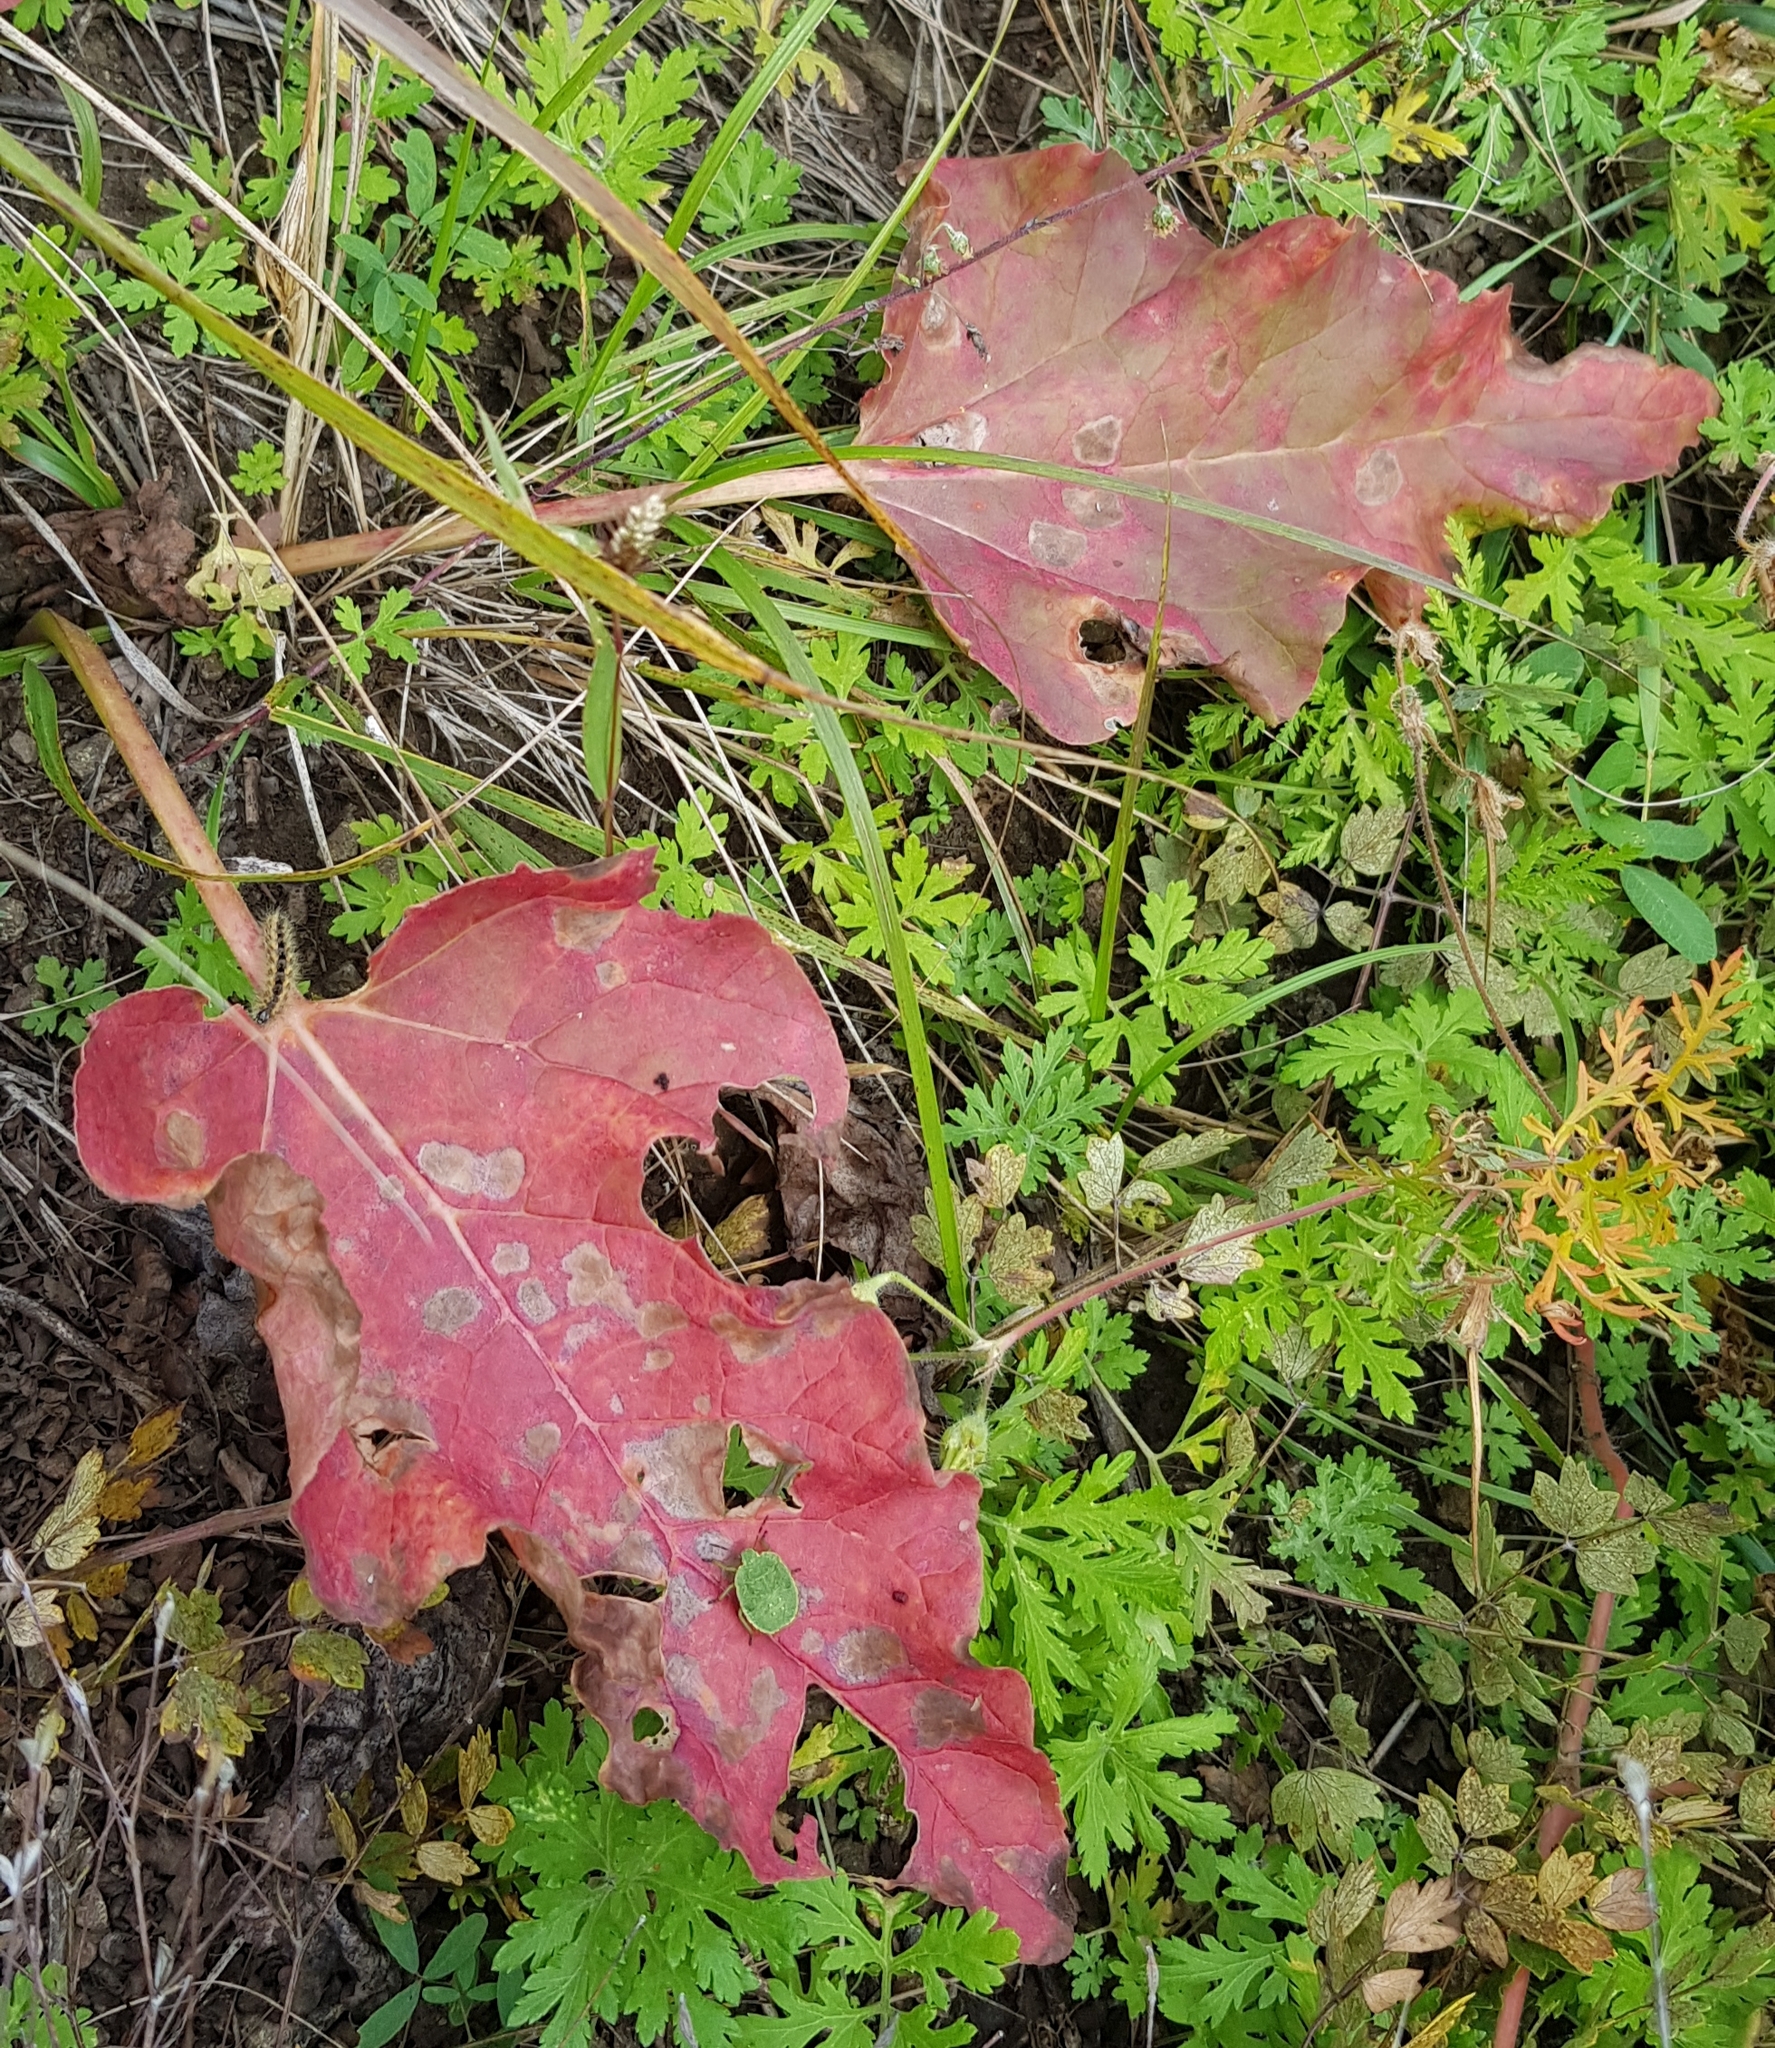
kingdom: Plantae
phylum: Tracheophyta
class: Magnoliopsida
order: Caryophyllales
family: Polygonaceae
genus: Rheum
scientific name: Rheum rhabarbarum
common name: Garden rhubarb
